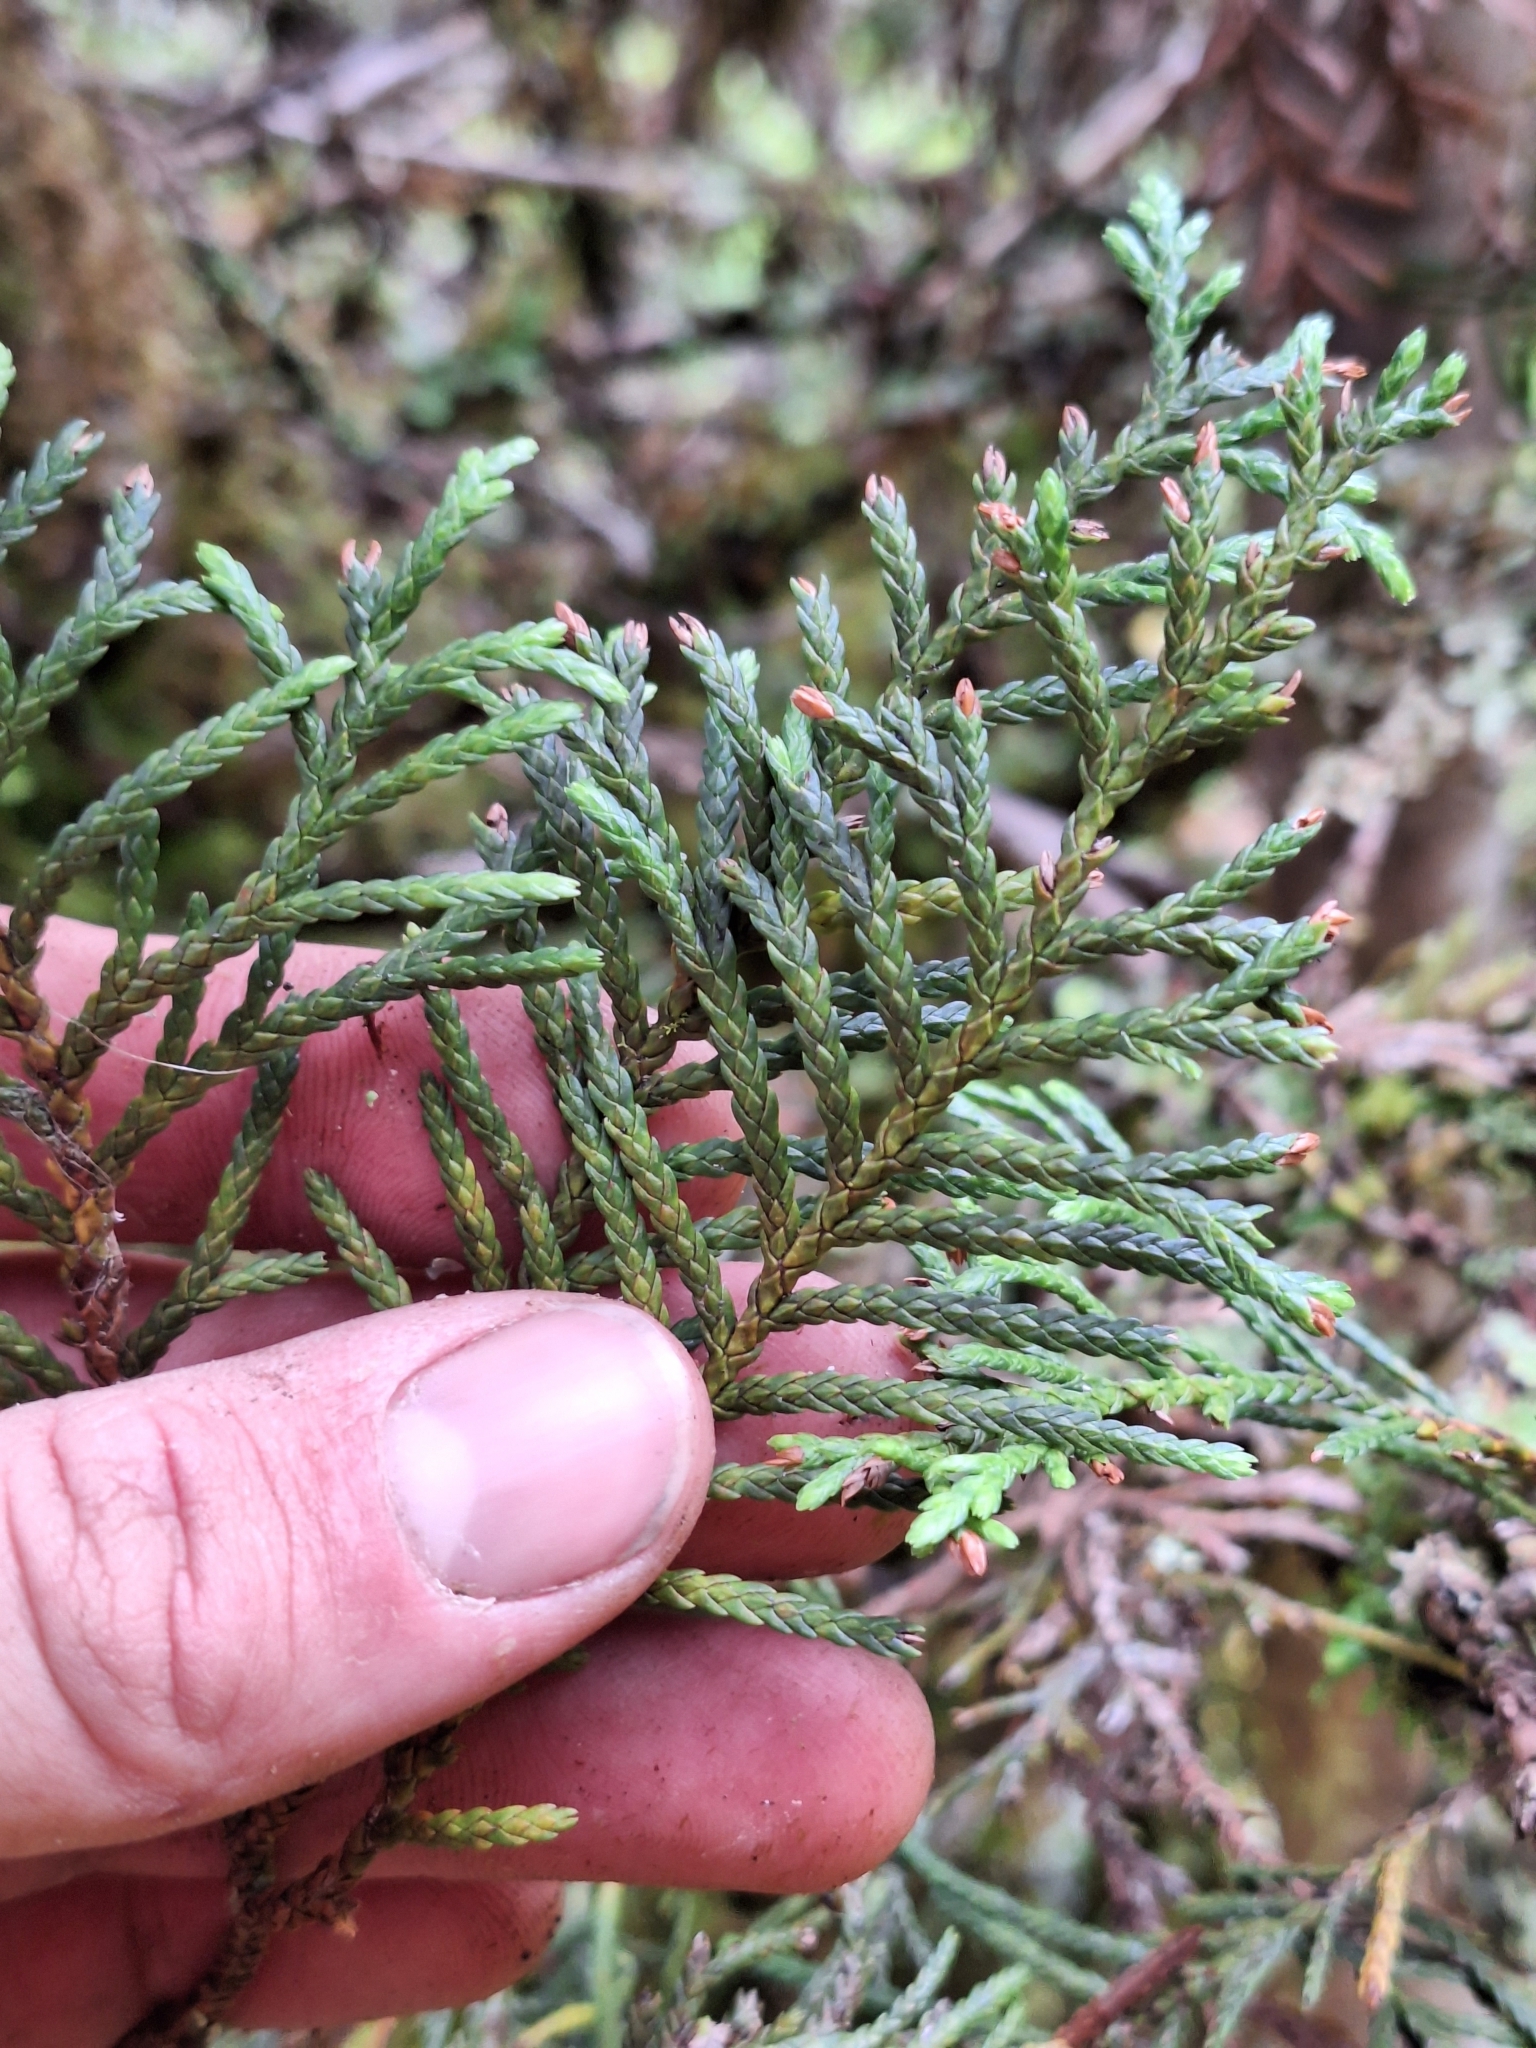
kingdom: Plantae
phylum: Tracheophyta
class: Pinopsida
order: Pinales
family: Cupressaceae
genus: Libocedrus
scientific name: Libocedrus bidwillii
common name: Cedar
